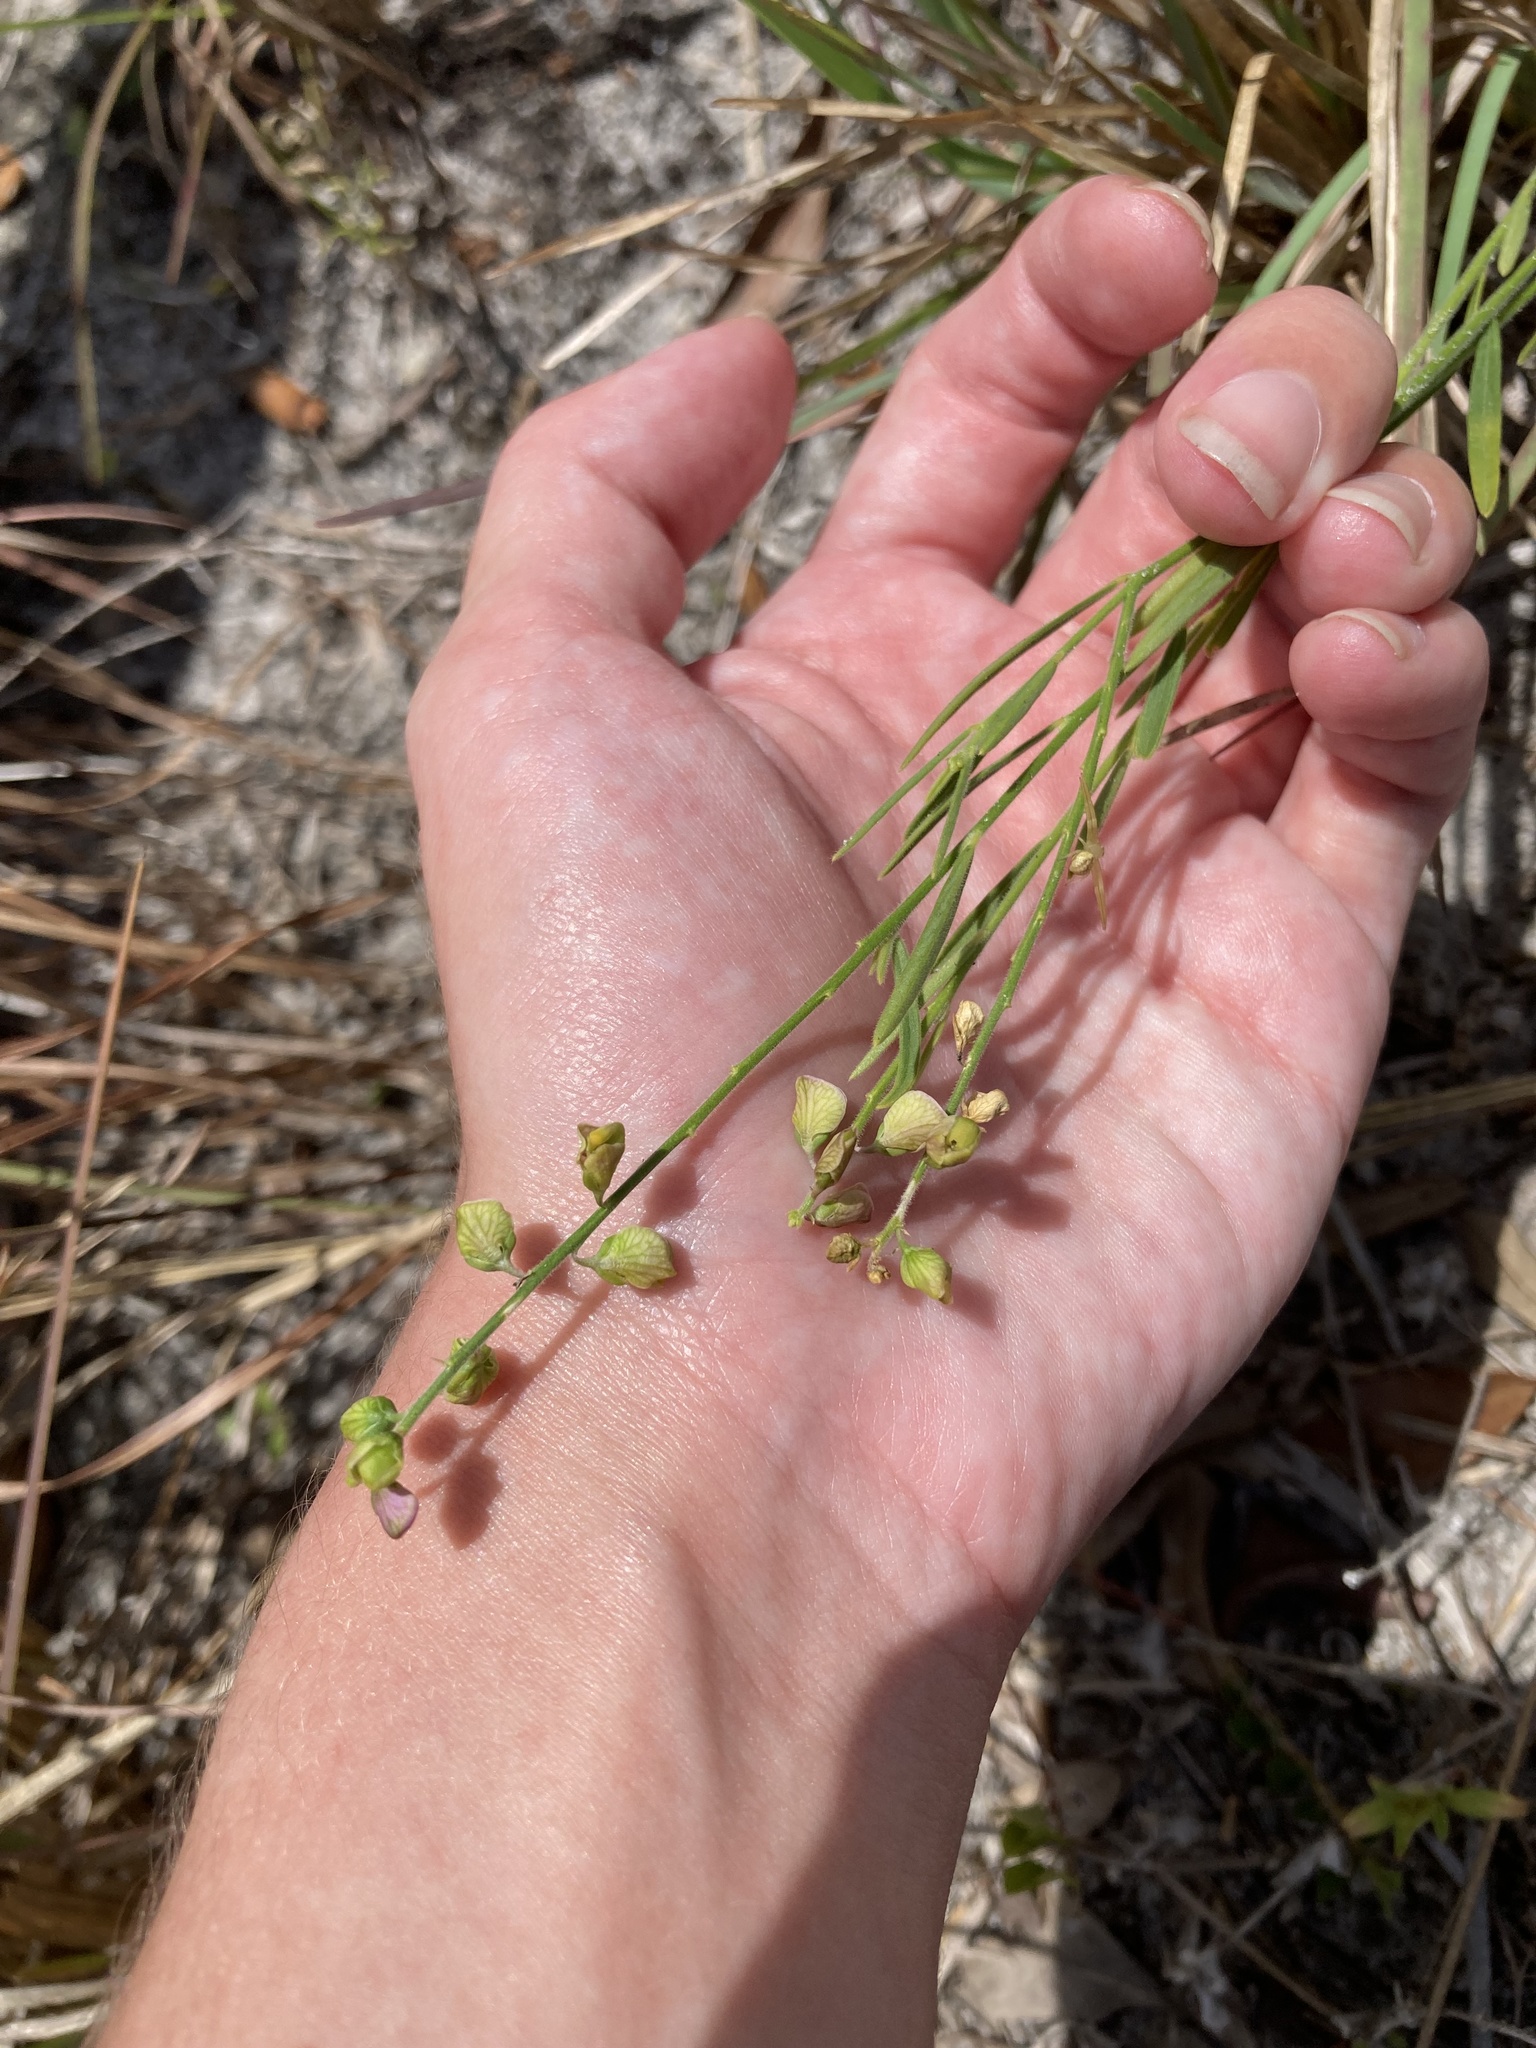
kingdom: Plantae
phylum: Tracheophyta
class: Magnoliopsida
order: Fabales
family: Polygalaceae
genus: Asemeia
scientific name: Asemeia grandiflora
